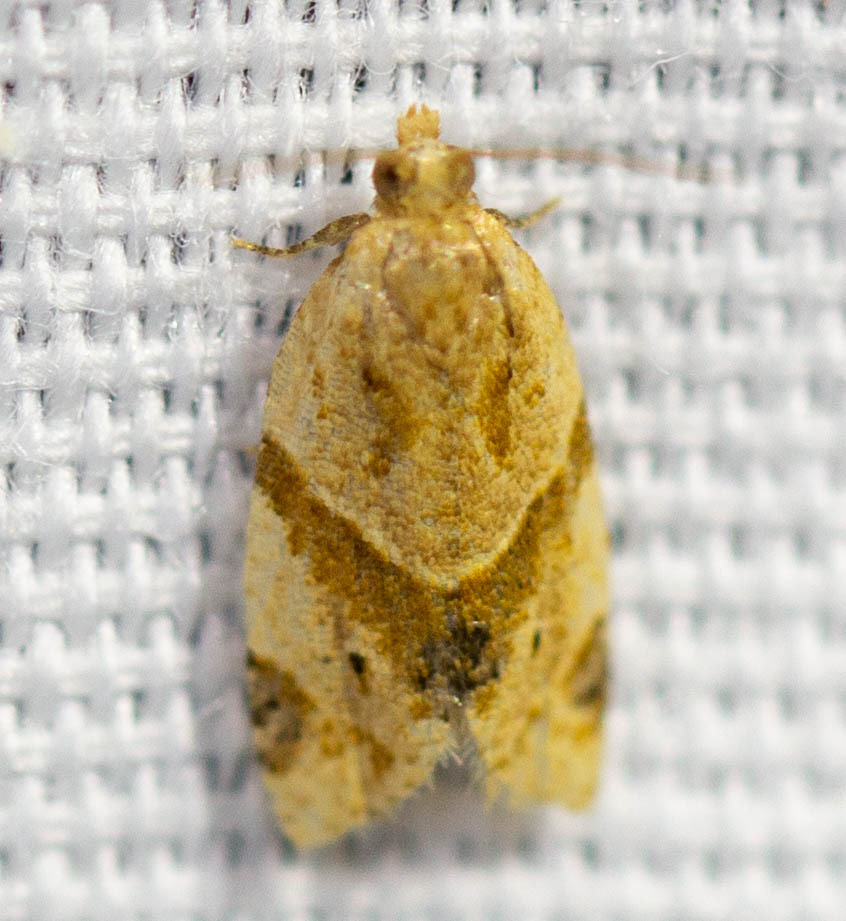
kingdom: Animalia
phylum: Arthropoda
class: Insecta
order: Lepidoptera
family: Tortricidae
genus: Clepsis
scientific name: Clepsis peritana
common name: Garden tortrix
